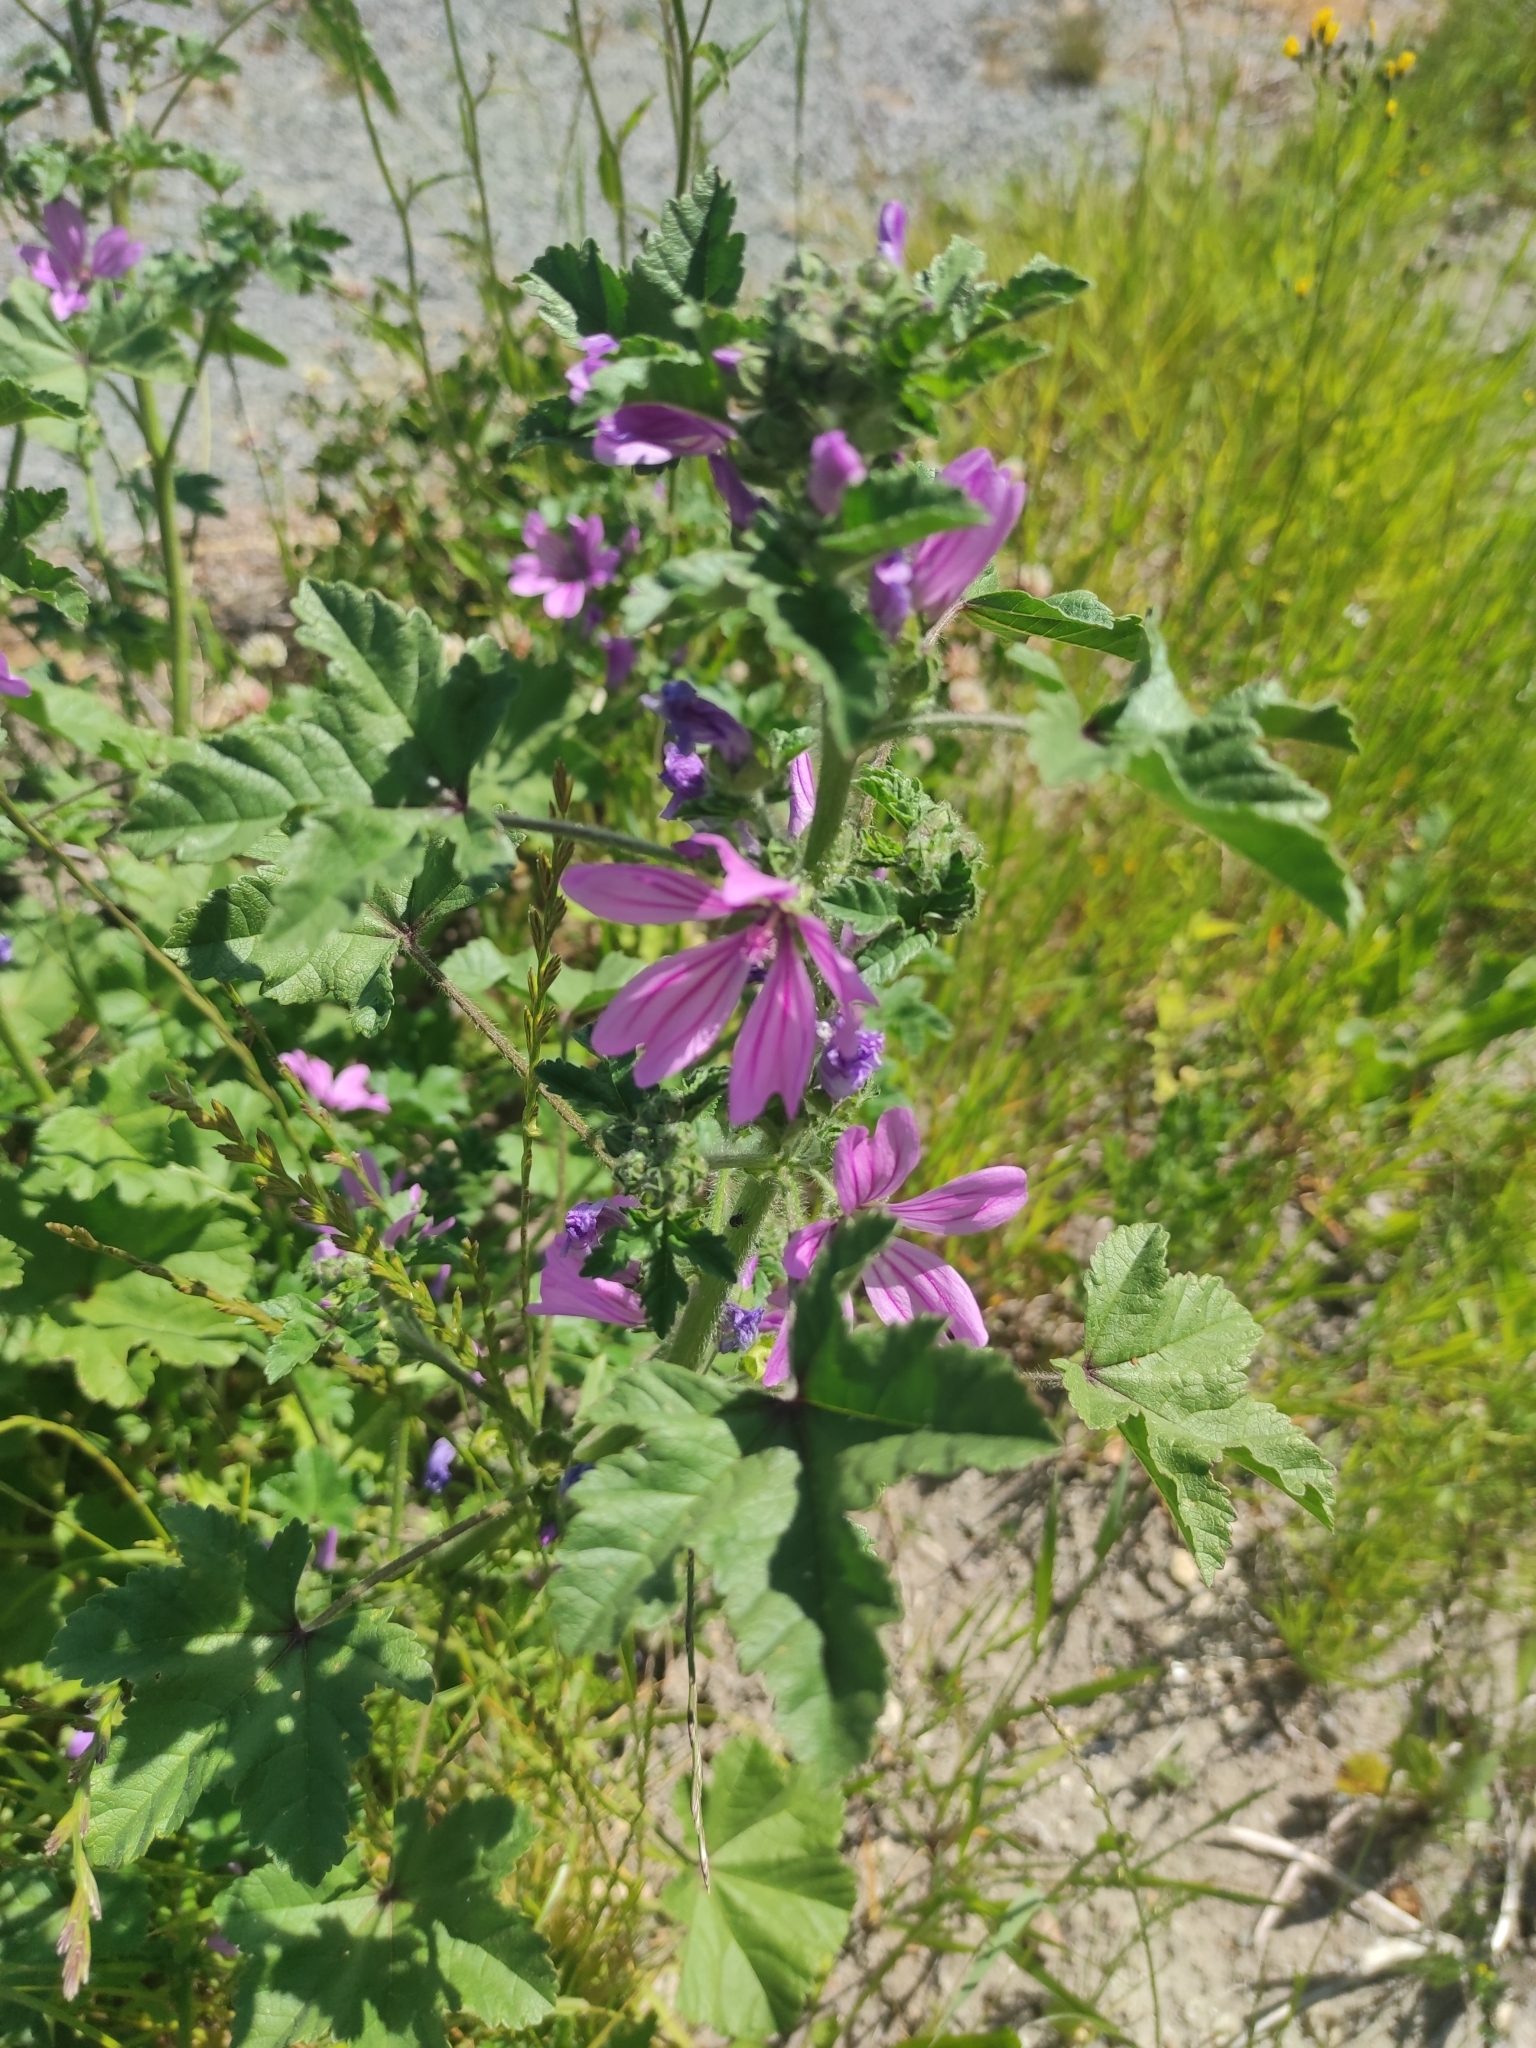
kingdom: Plantae
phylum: Tracheophyta
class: Magnoliopsida
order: Malvales
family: Malvaceae
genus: Malva
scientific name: Malva sylvestris
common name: Common mallow
